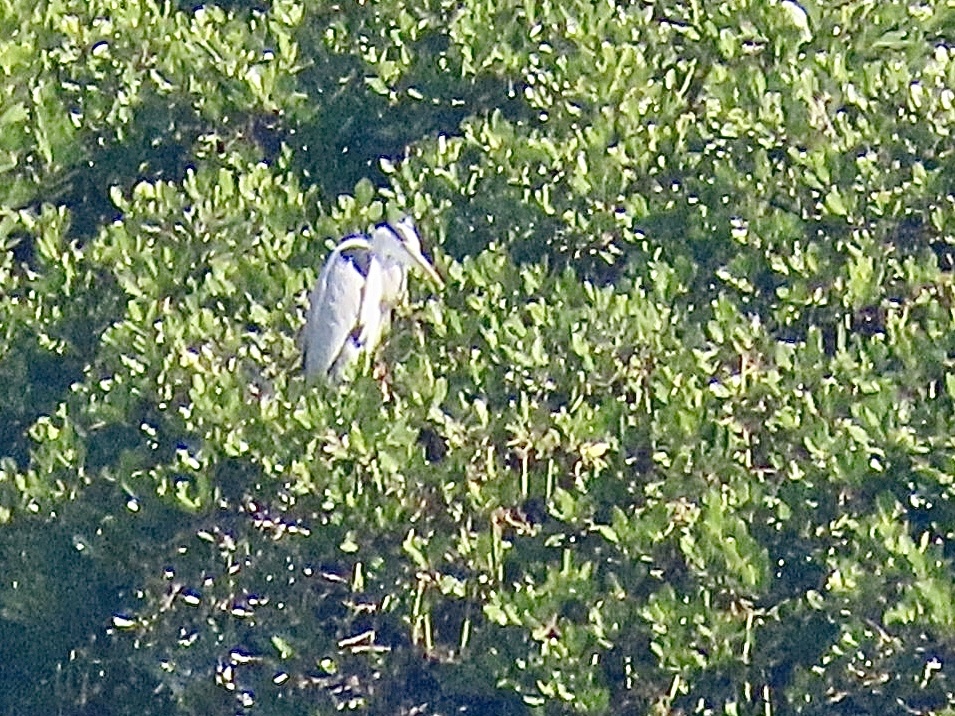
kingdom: Animalia
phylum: Chordata
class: Aves
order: Pelecaniformes
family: Ardeidae
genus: Ardea
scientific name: Ardea cinerea
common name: Grey heron
